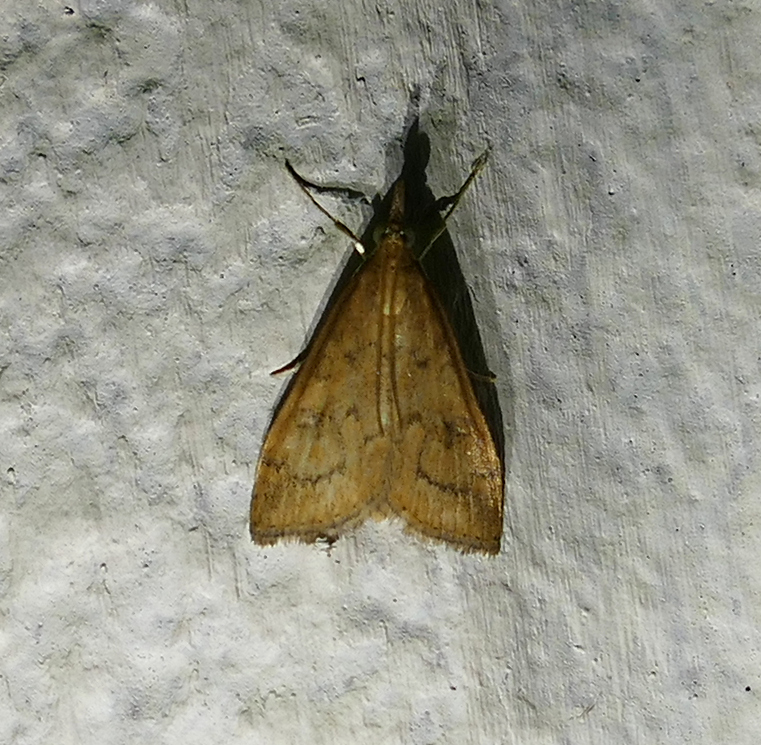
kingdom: Animalia
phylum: Arthropoda
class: Insecta
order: Lepidoptera
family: Crambidae
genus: Udea
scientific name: Udea rubigalis
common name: Celery leaftier moth
